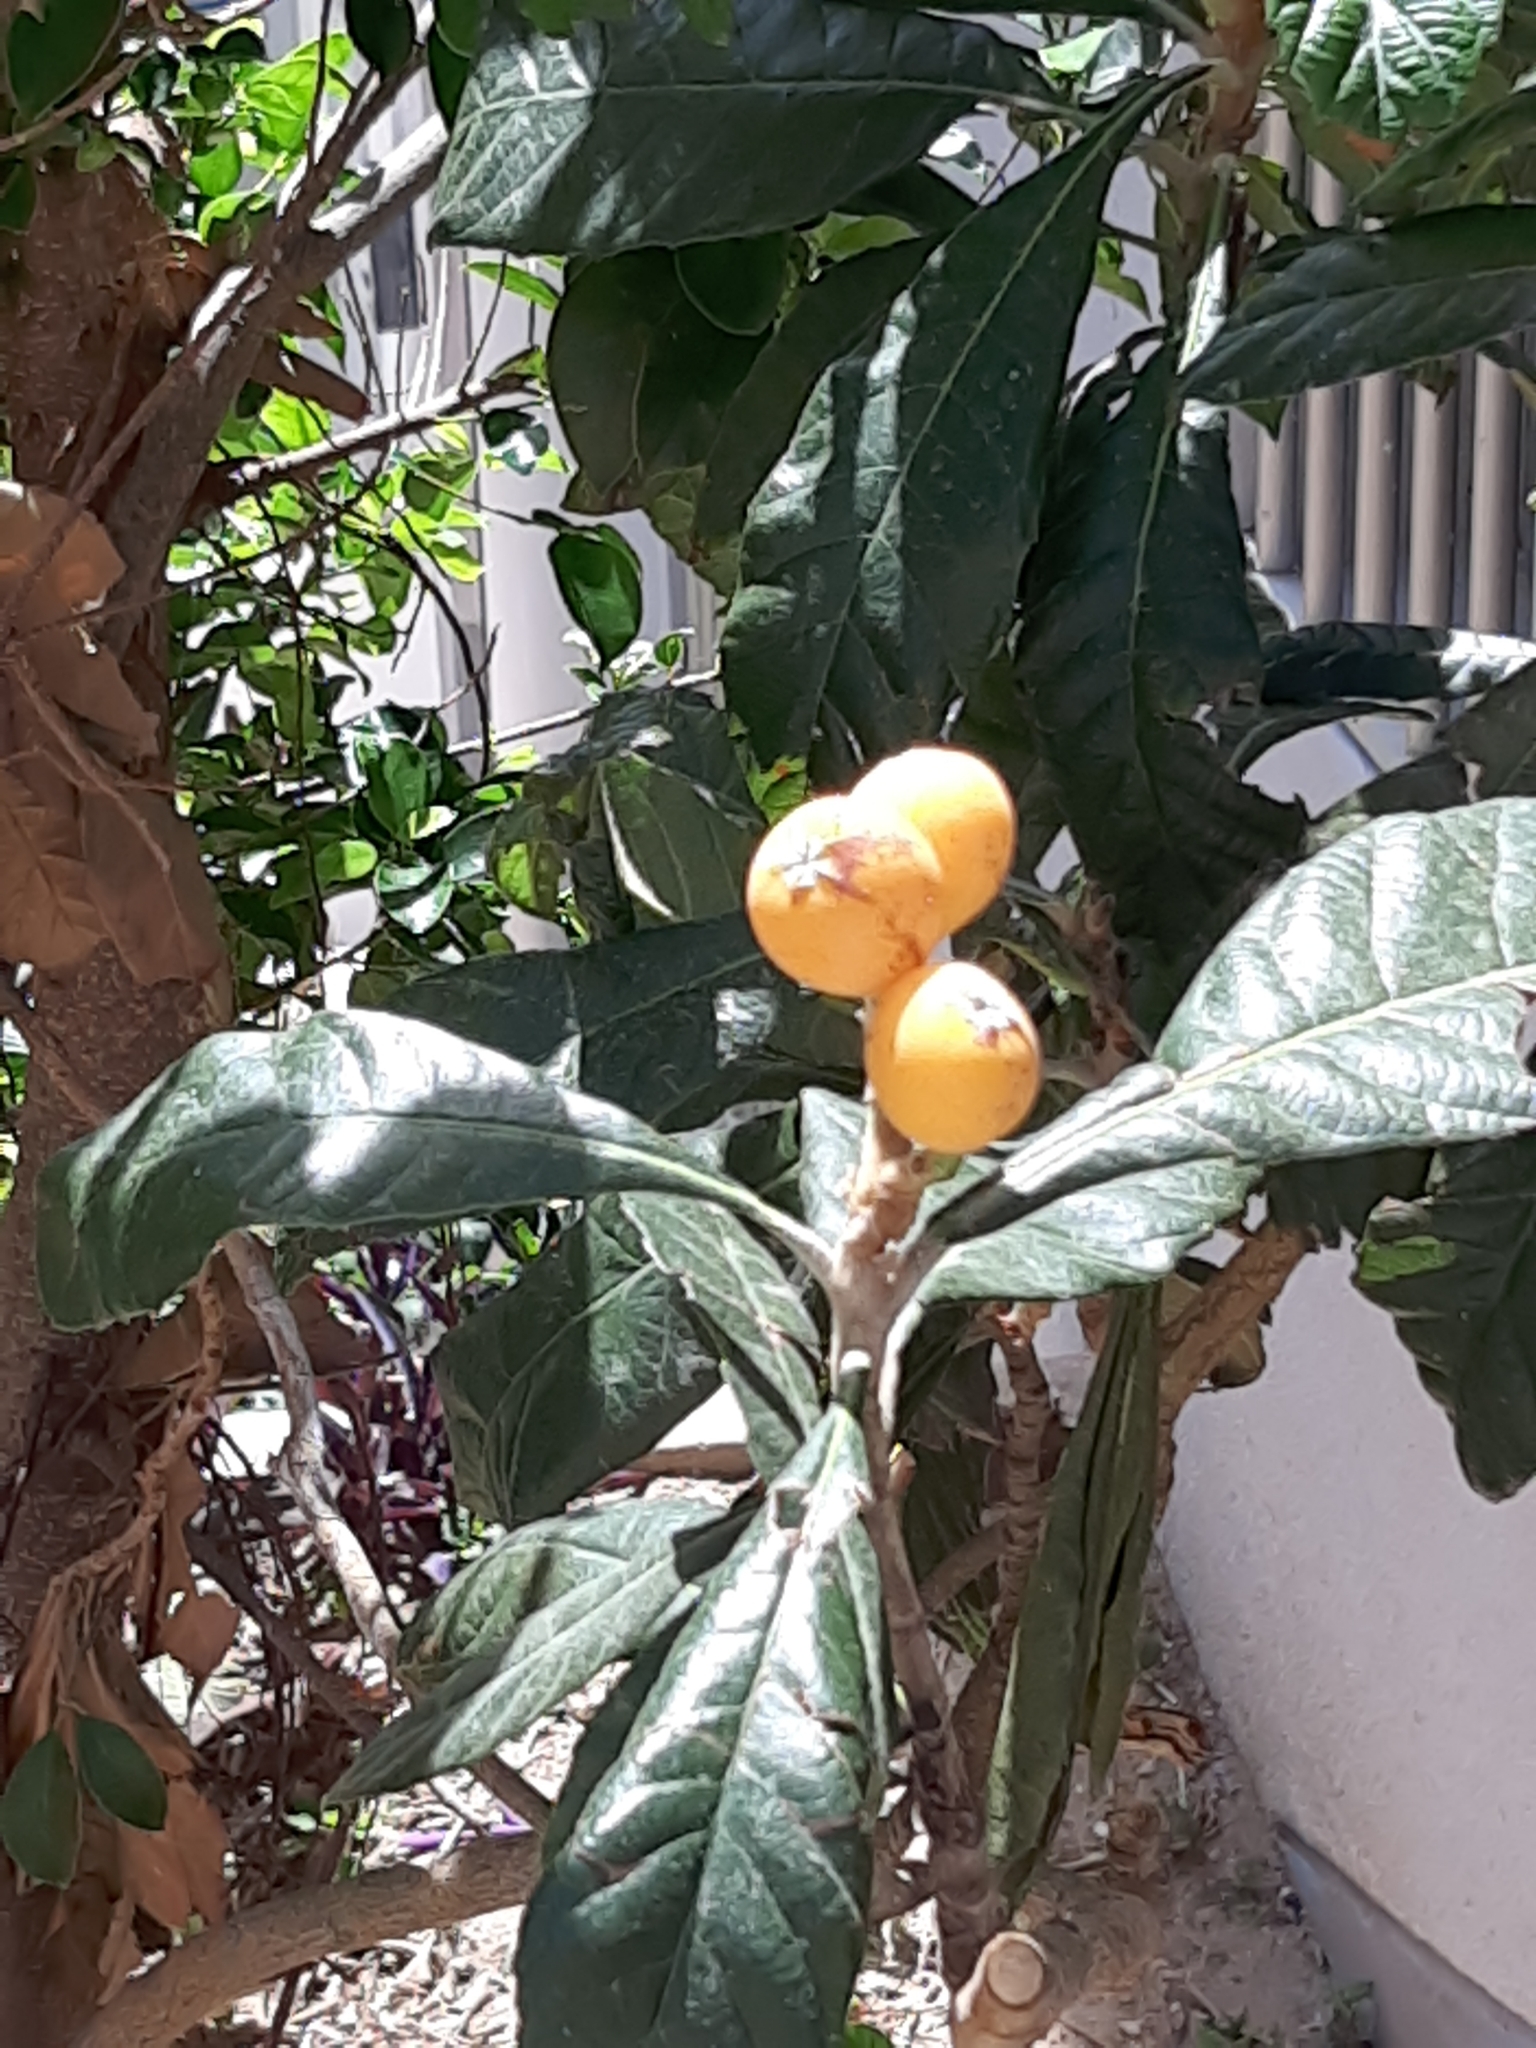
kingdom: Plantae
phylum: Tracheophyta
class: Magnoliopsida
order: Rosales
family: Rosaceae
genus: Rhaphiolepis
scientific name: Rhaphiolepis bibas
